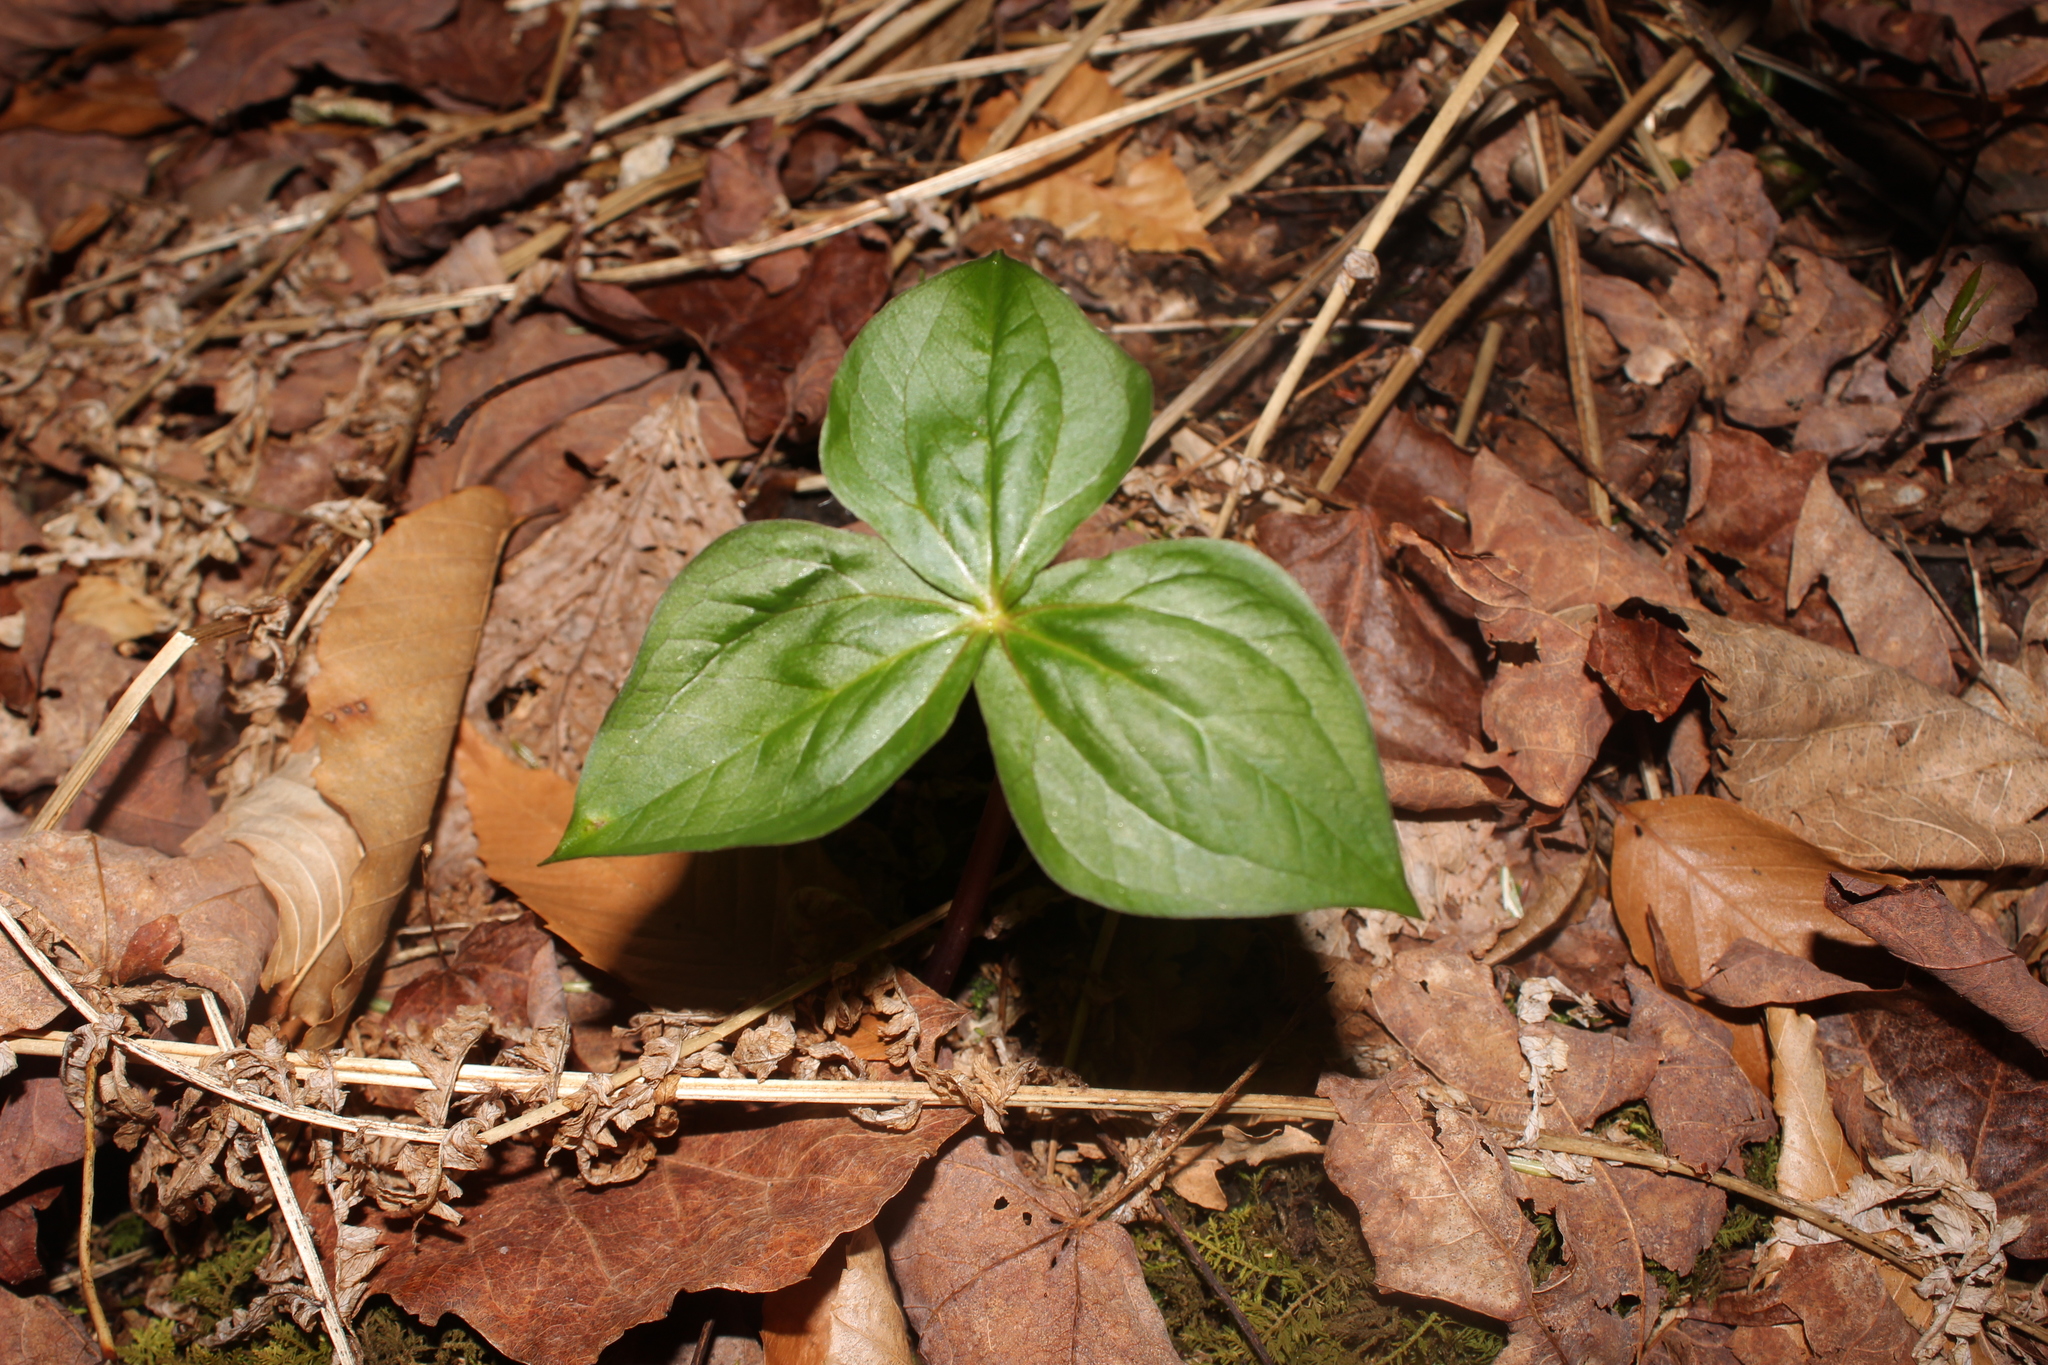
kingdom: Plantae
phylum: Tracheophyta
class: Liliopsida
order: Liliales
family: Melanthiaceae
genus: Trillium
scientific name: Trillium erectum
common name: Purple trillium
